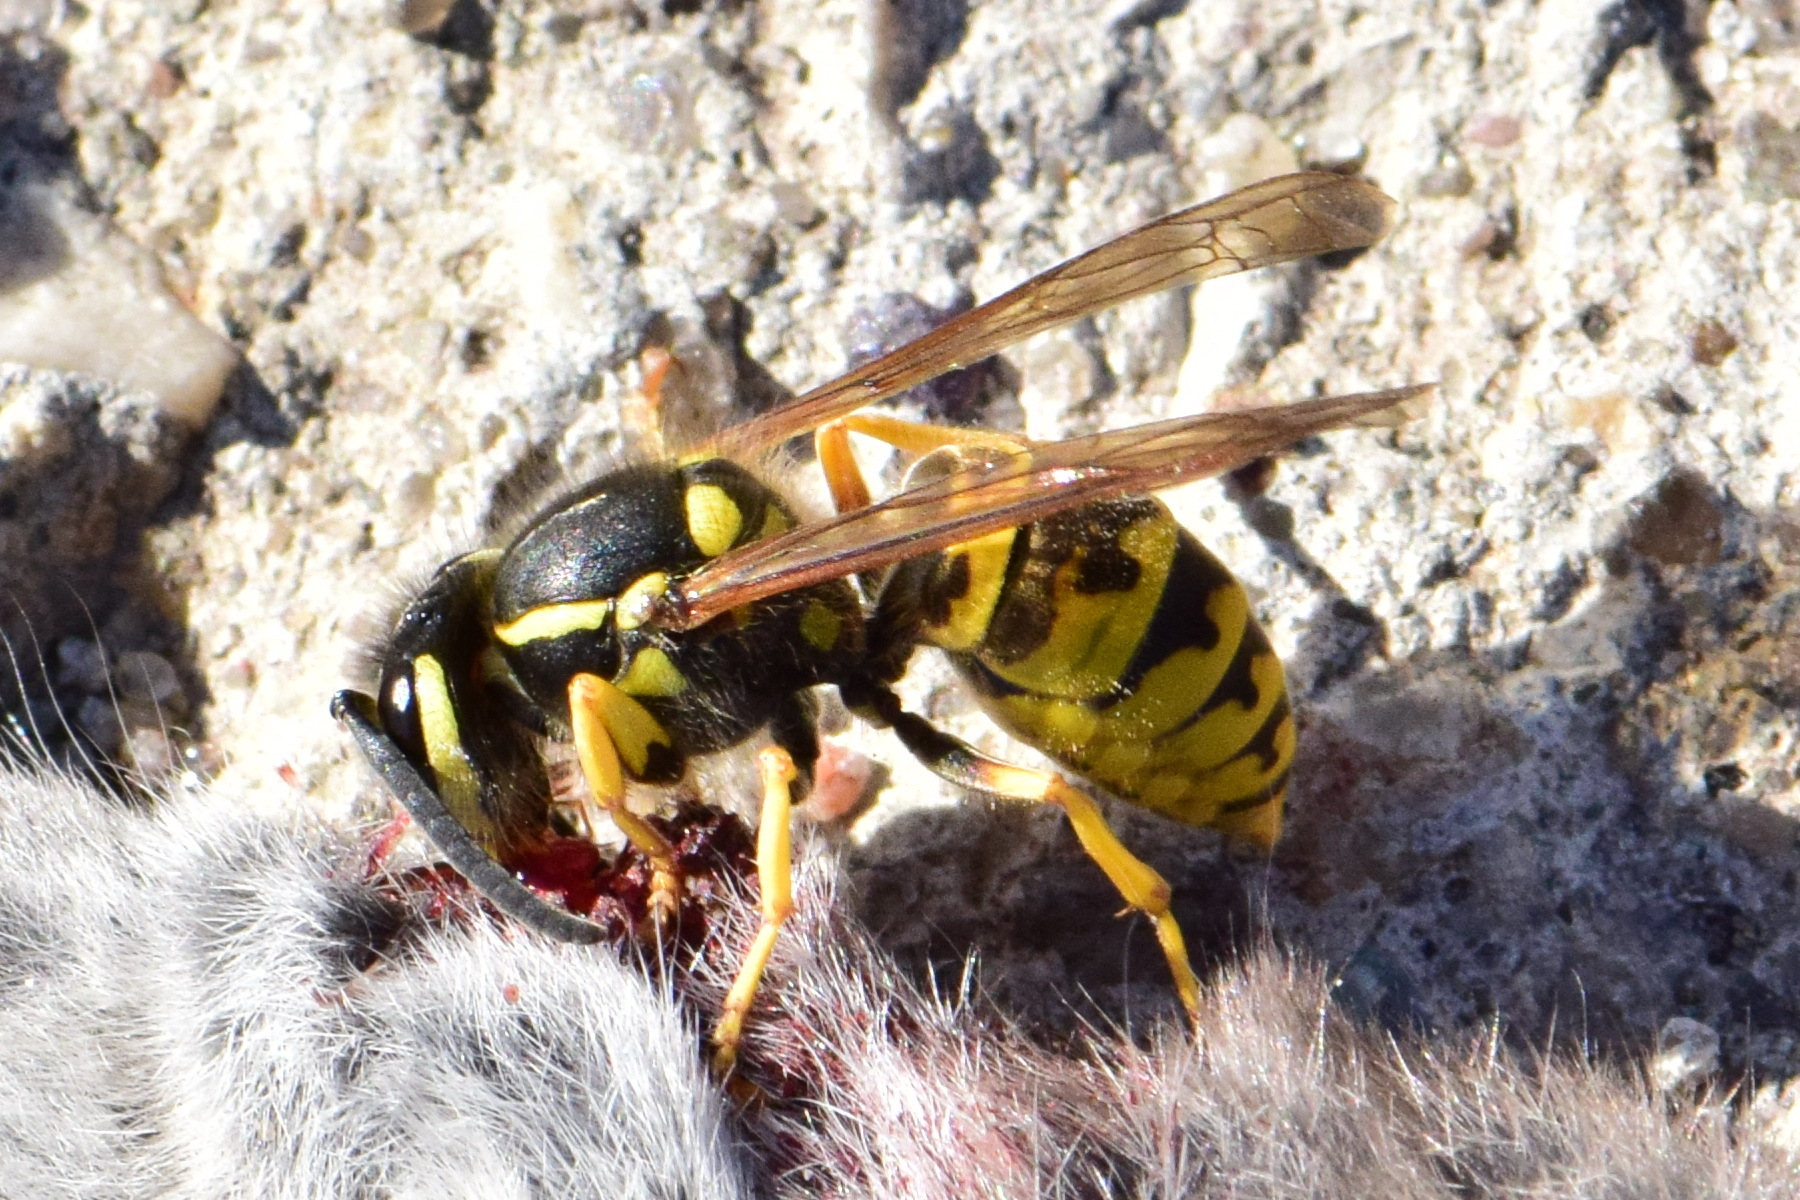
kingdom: Animalia
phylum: Arthropoda
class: Insecta
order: Hymenoptera
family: Vespidae
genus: Vespula
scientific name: Vespula germanica
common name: German wasp
